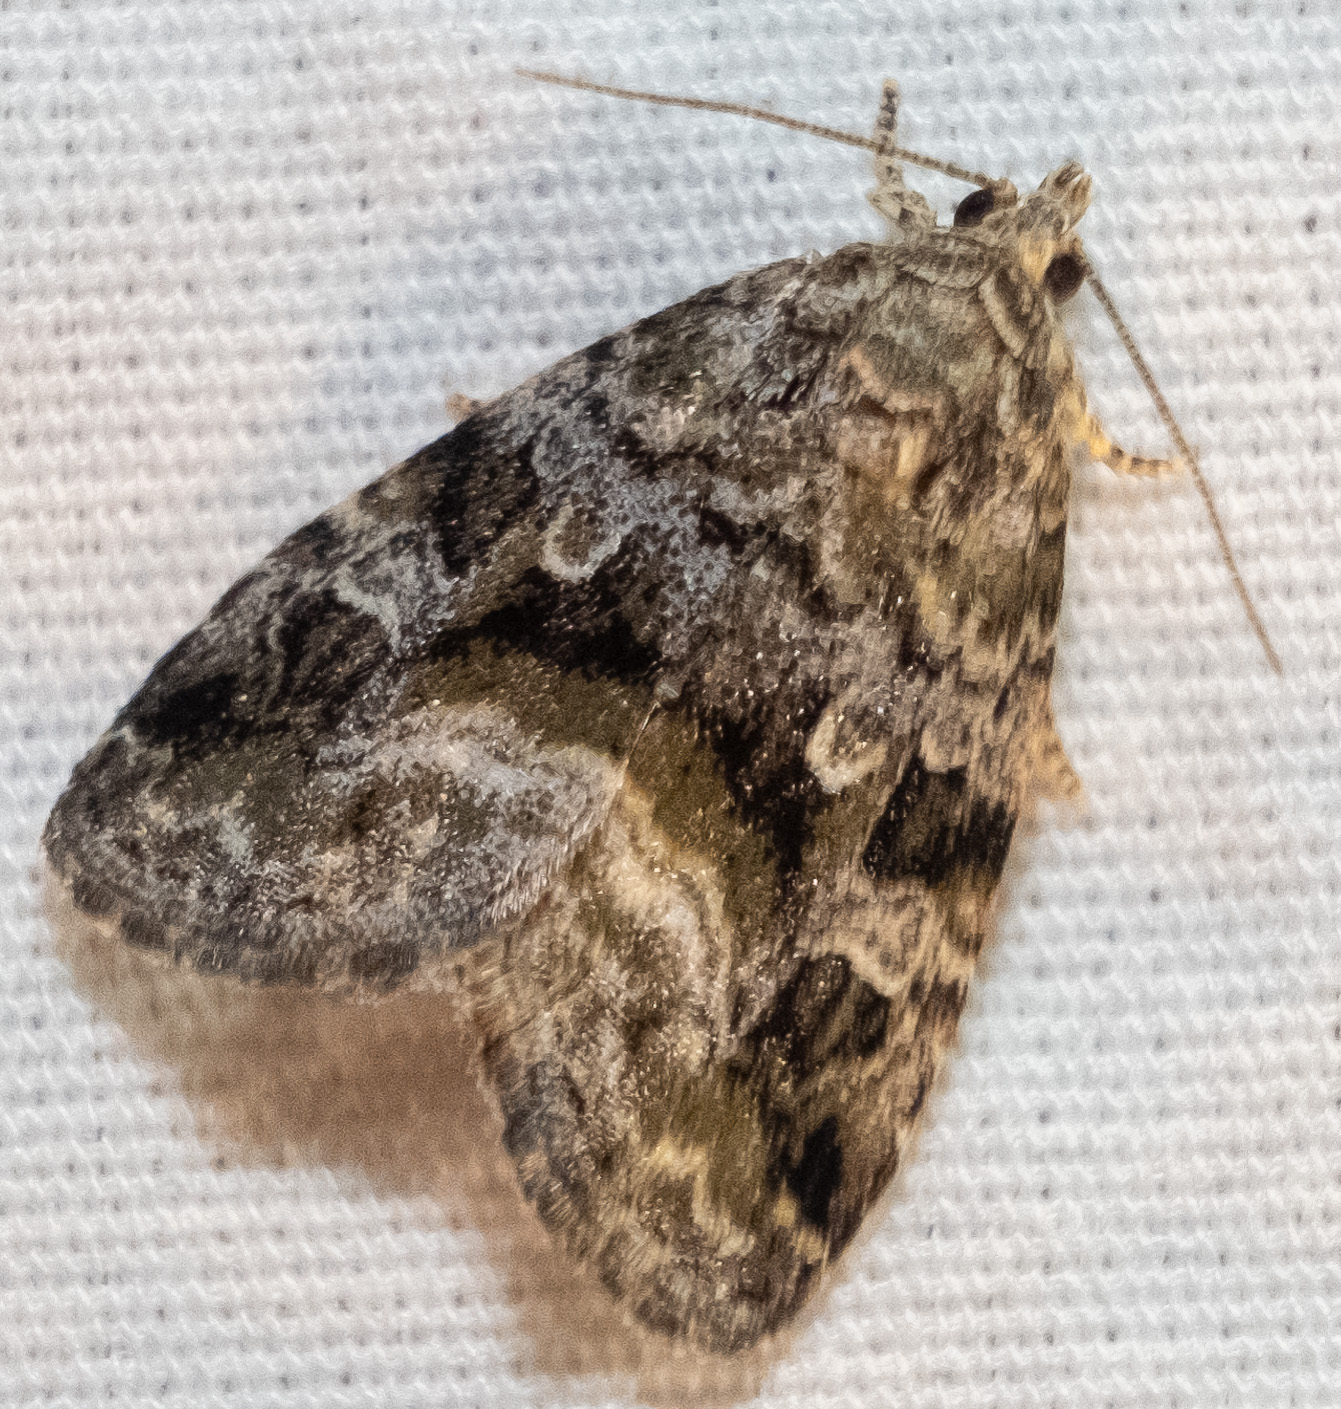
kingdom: Animalia
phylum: Arthropoda
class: Insecta
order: Lepidoptera
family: Noctuidae
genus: Protodeltote
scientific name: Protodeltote muscosula
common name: Large mossy glyph
